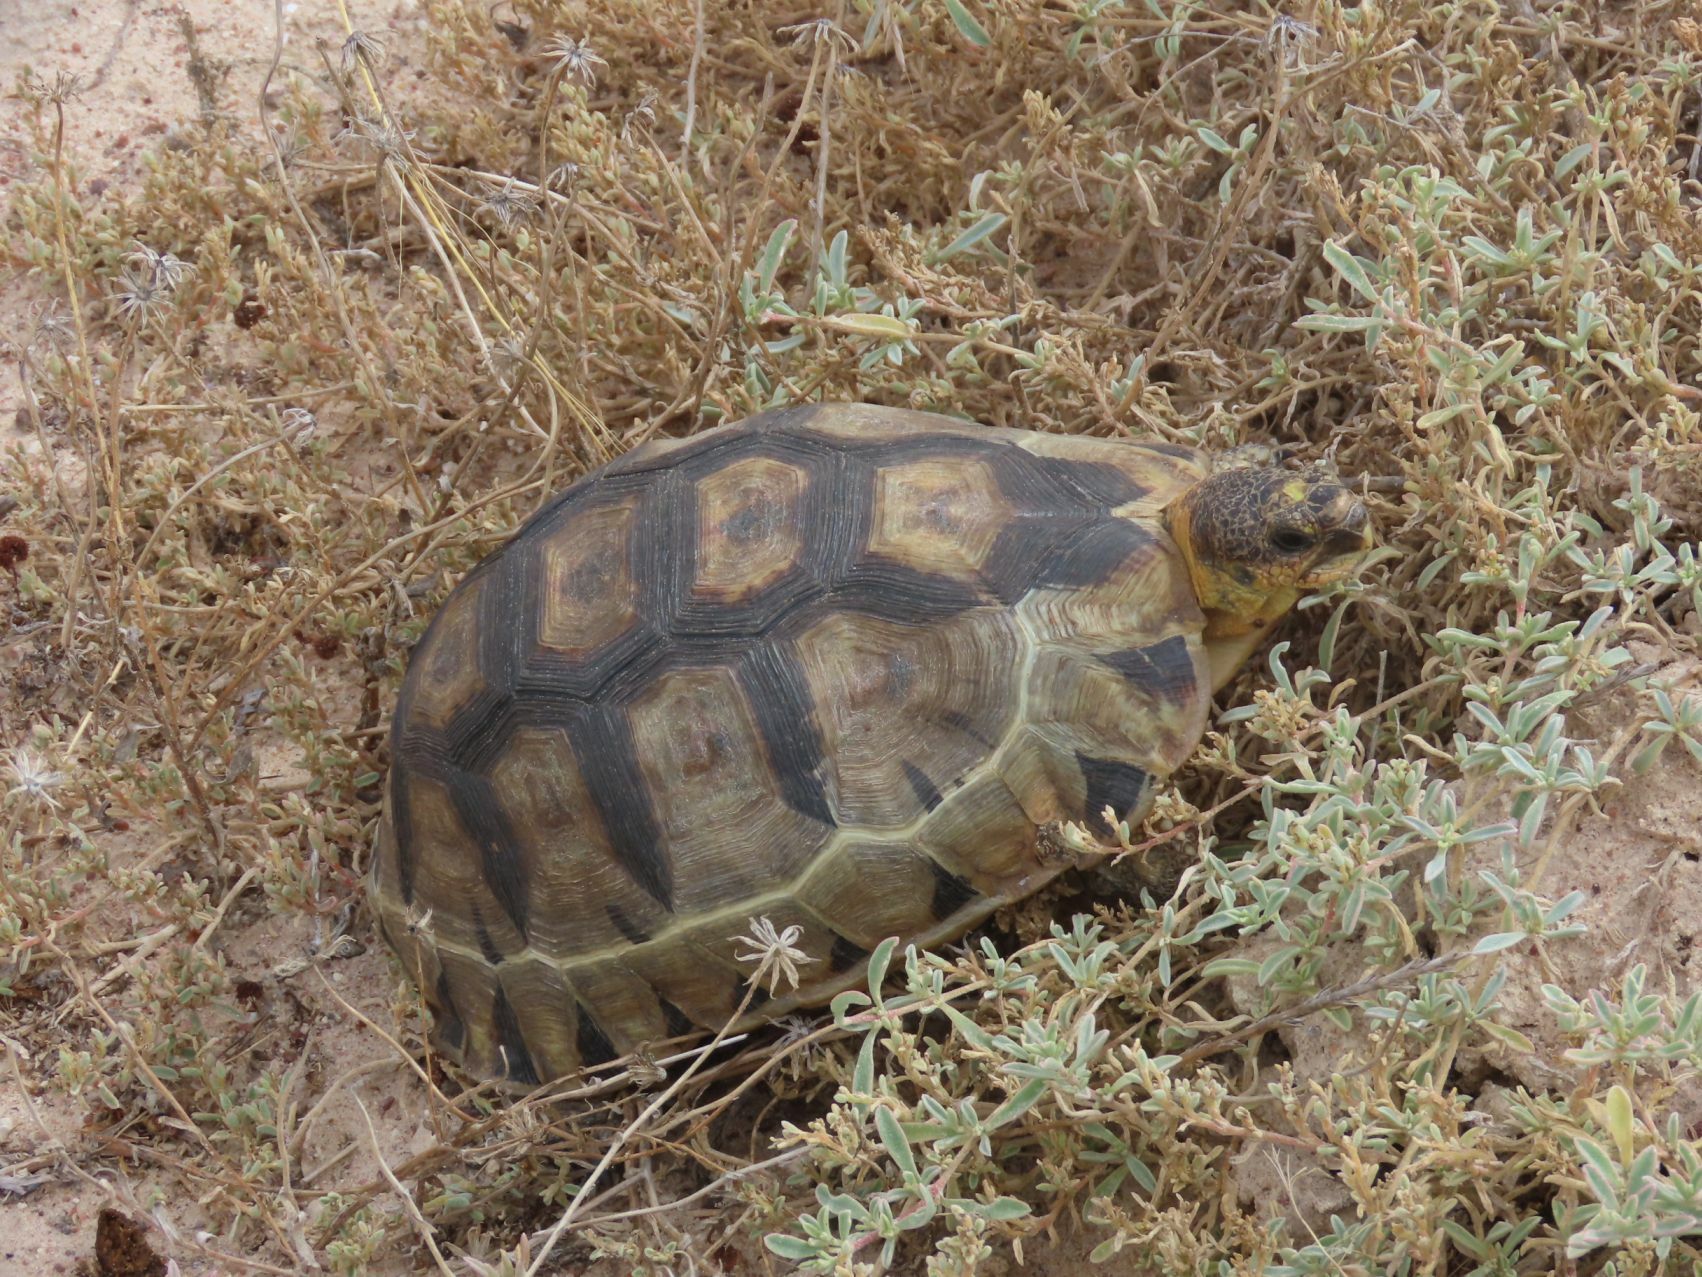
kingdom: Animalia
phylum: Chordata
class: Testudines
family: Testudinidae
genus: Chersina
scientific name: Chersina angulata
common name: South african bowsprit tortoise
